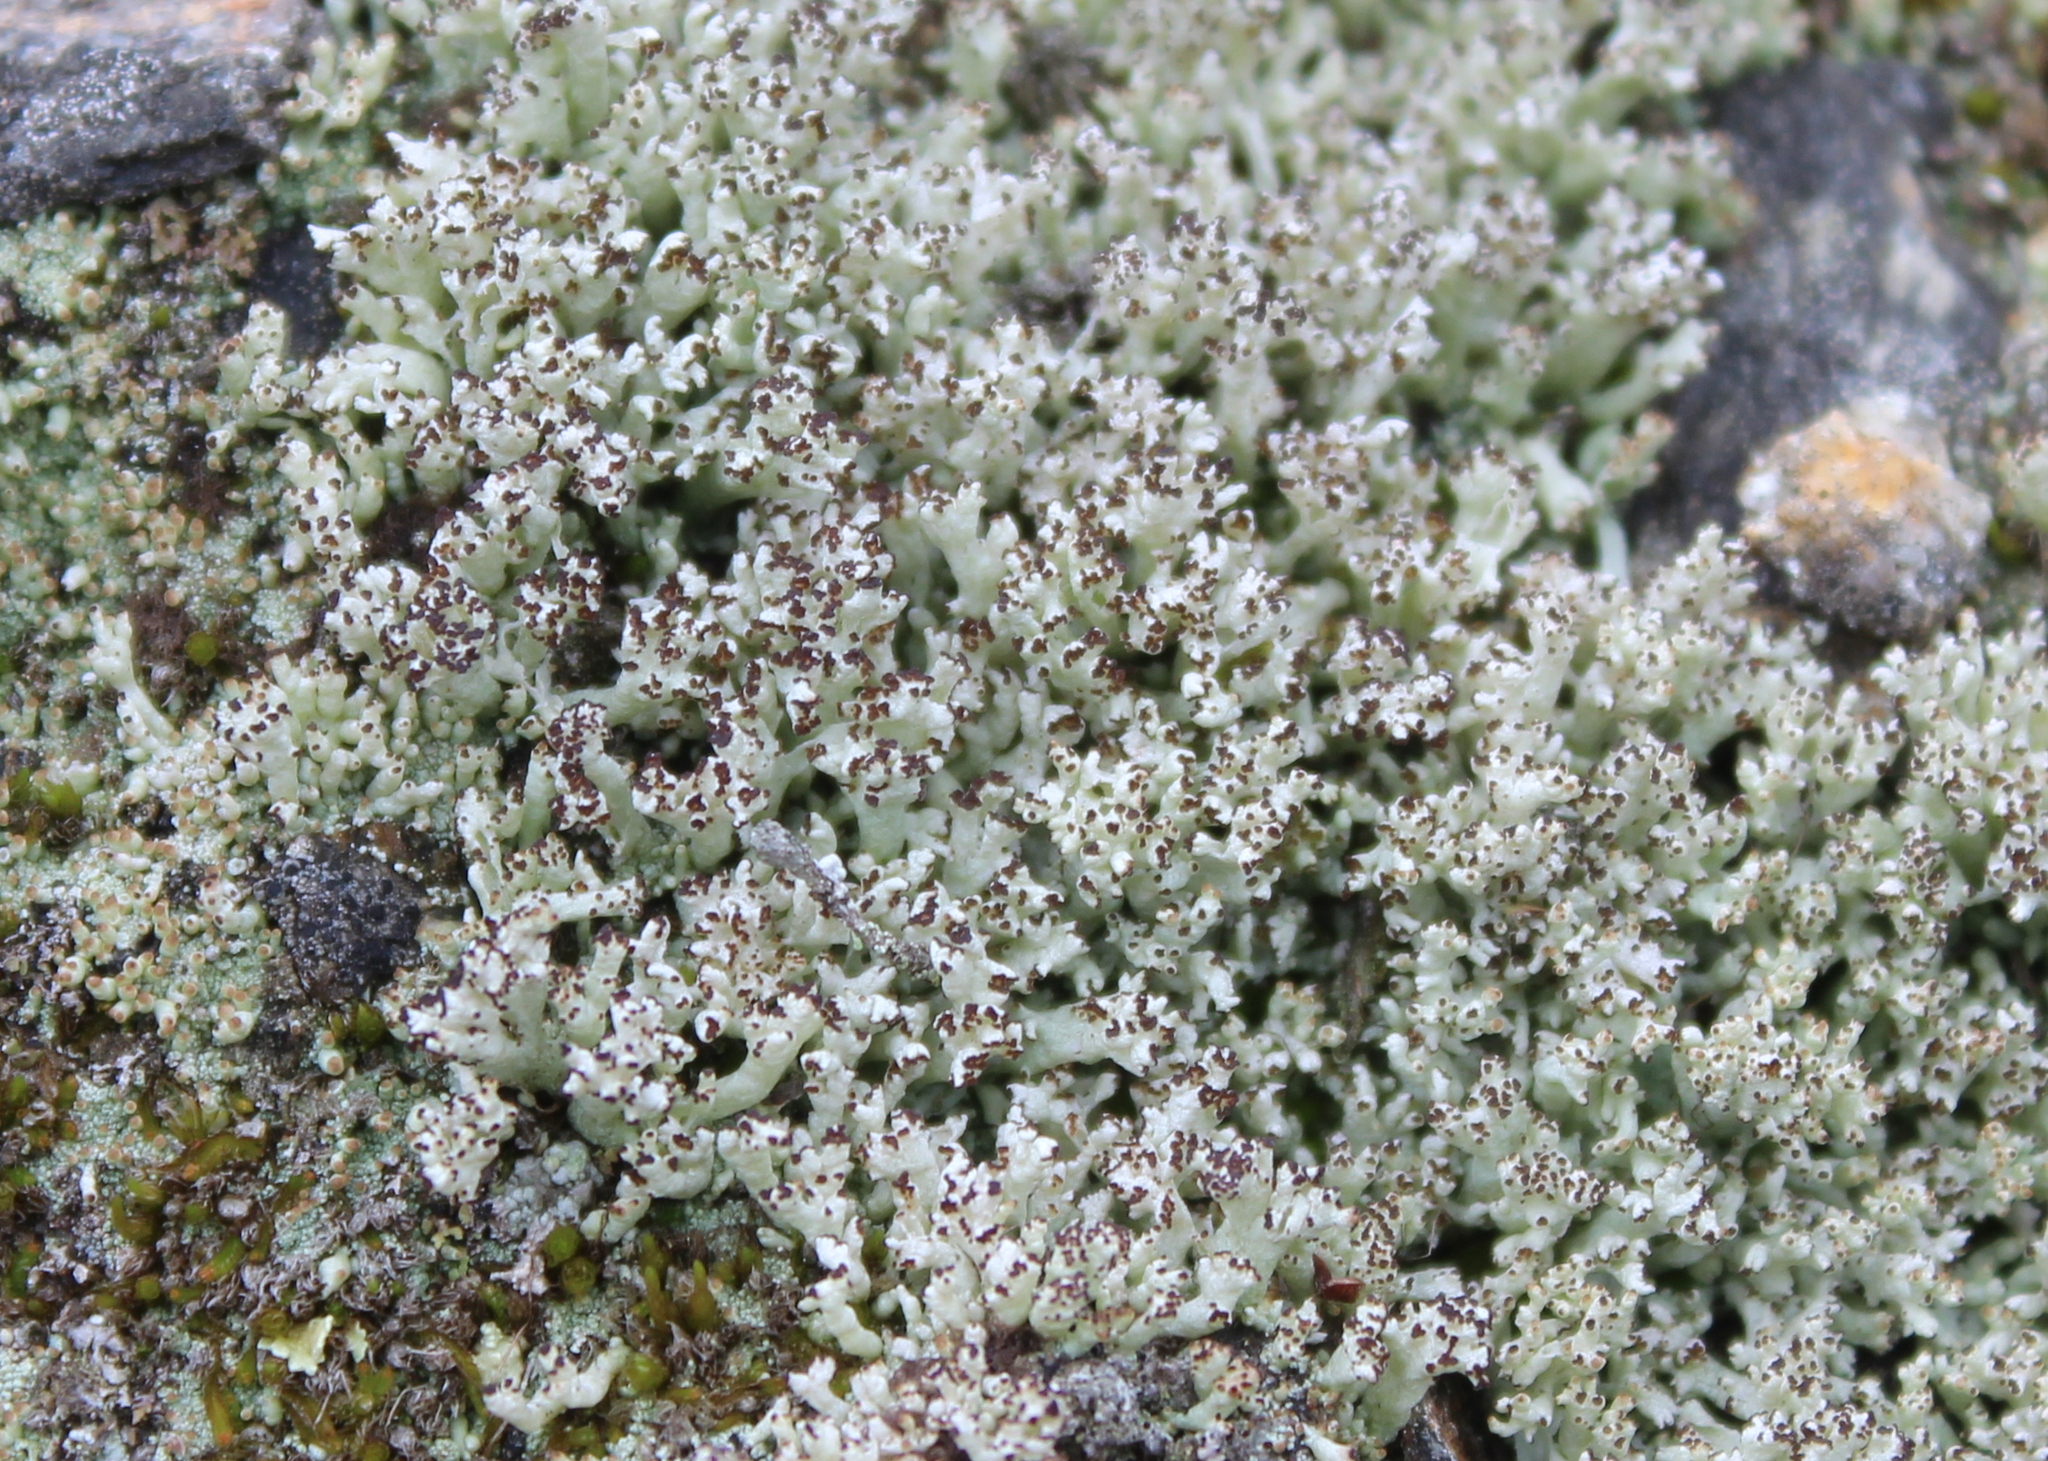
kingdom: Fungi
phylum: Ascomycota
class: Lecanoromycetes
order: Lecanorales
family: Cladoniaceae
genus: Pycnothelia
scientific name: Pycnothelia papillaria
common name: Nipple lichen
